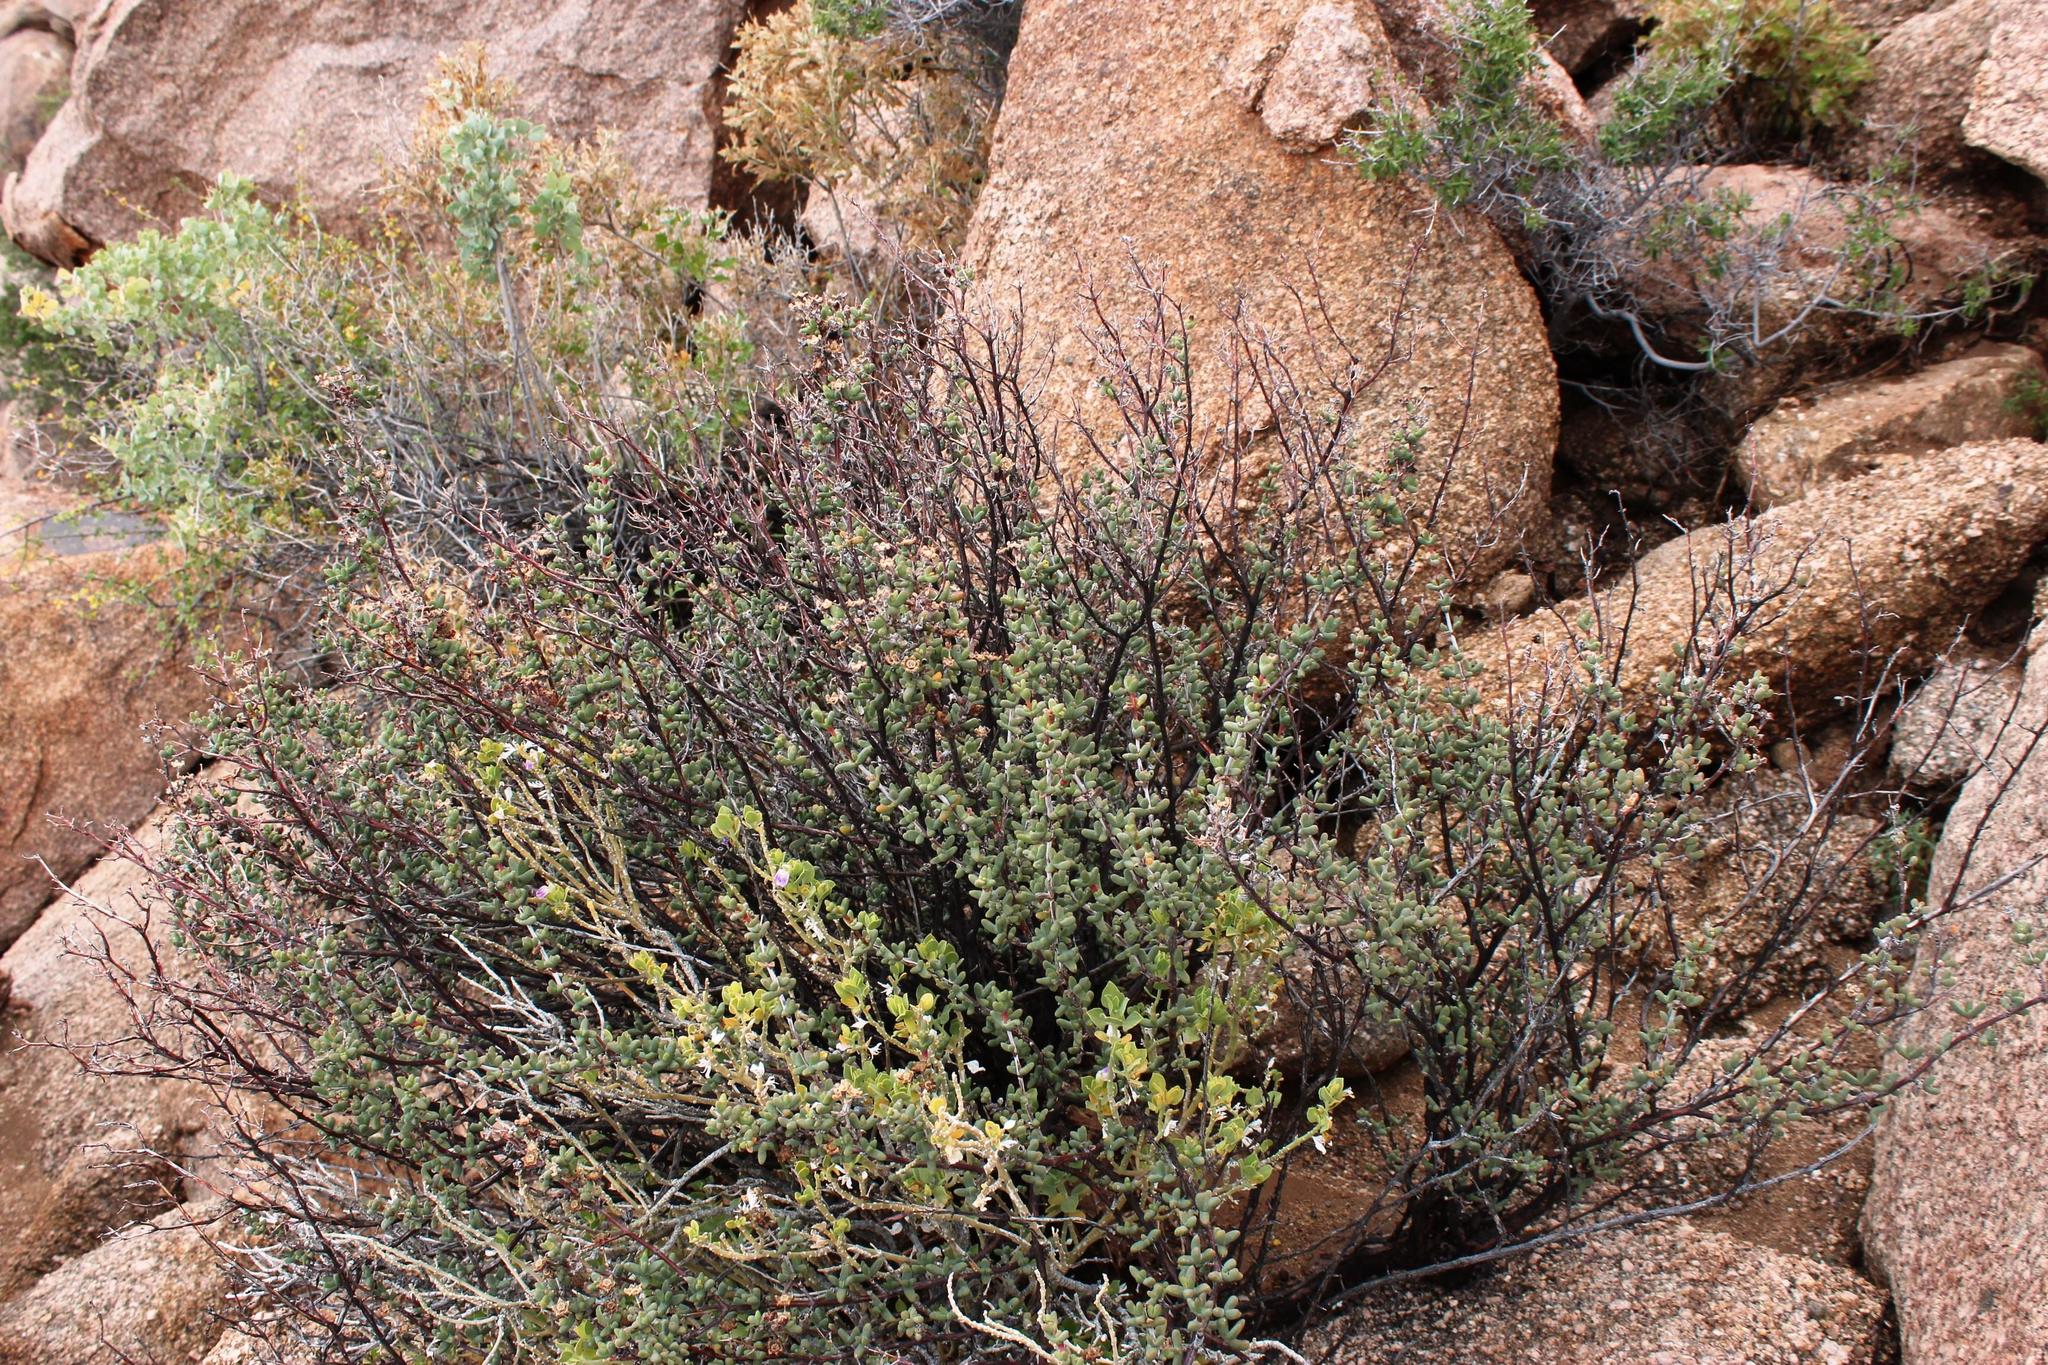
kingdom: Plantae
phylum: Tracheophyta
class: Magnoliopsida
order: Caryophyllales
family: Aizoaceae
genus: Ruschia
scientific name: Ruschia robusta
